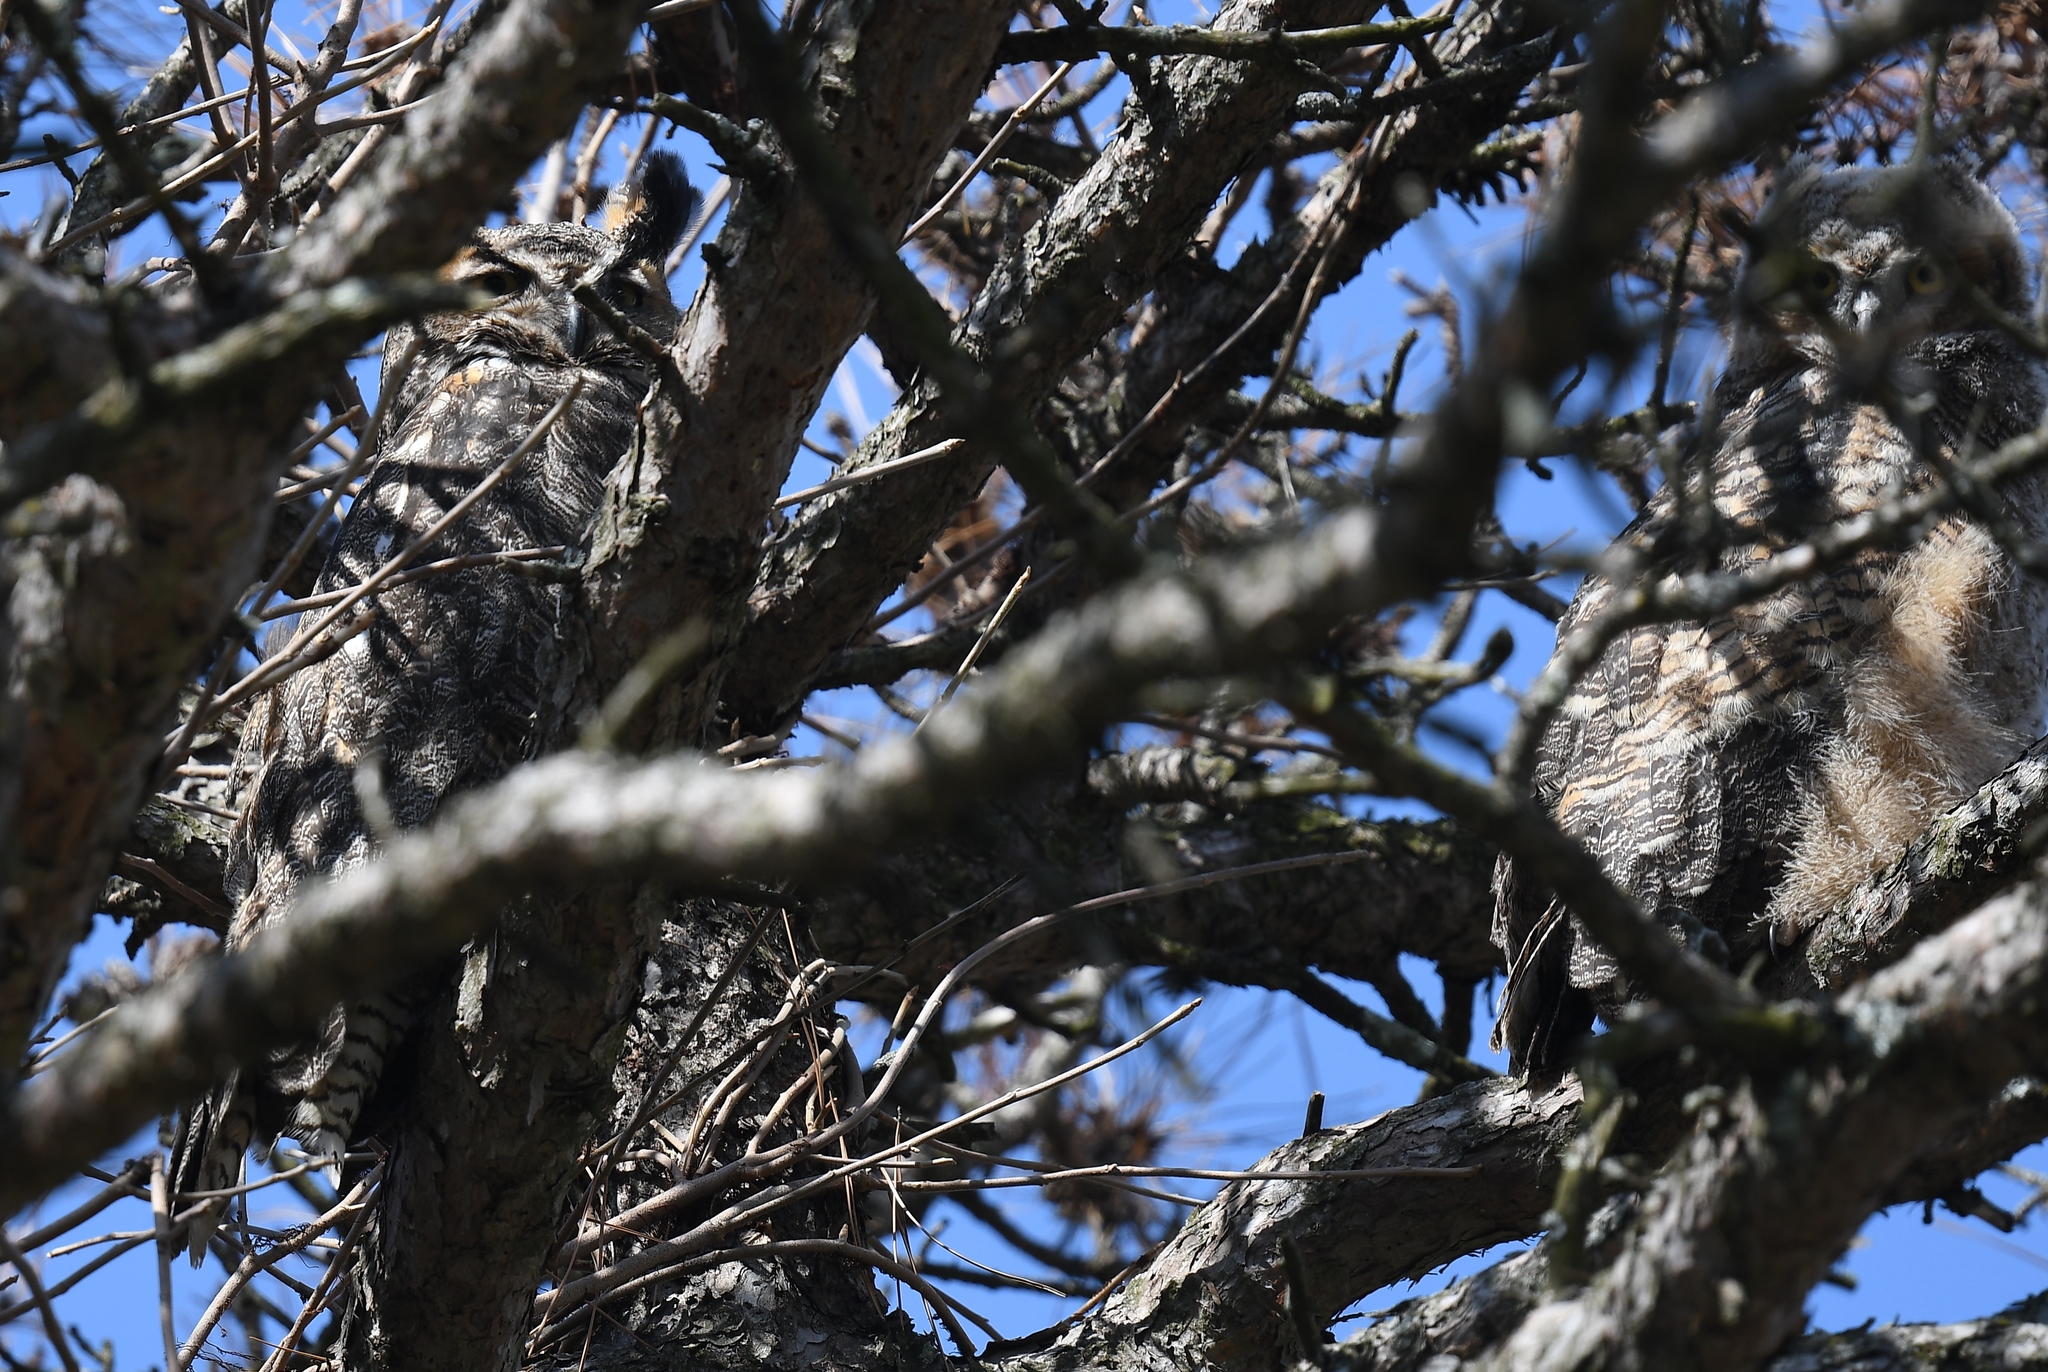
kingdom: Animalia
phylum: Chordata
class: Aves
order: Strigiformes
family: Strigidae
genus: Bubo
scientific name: Bubo virginianus
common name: Great horned owl
